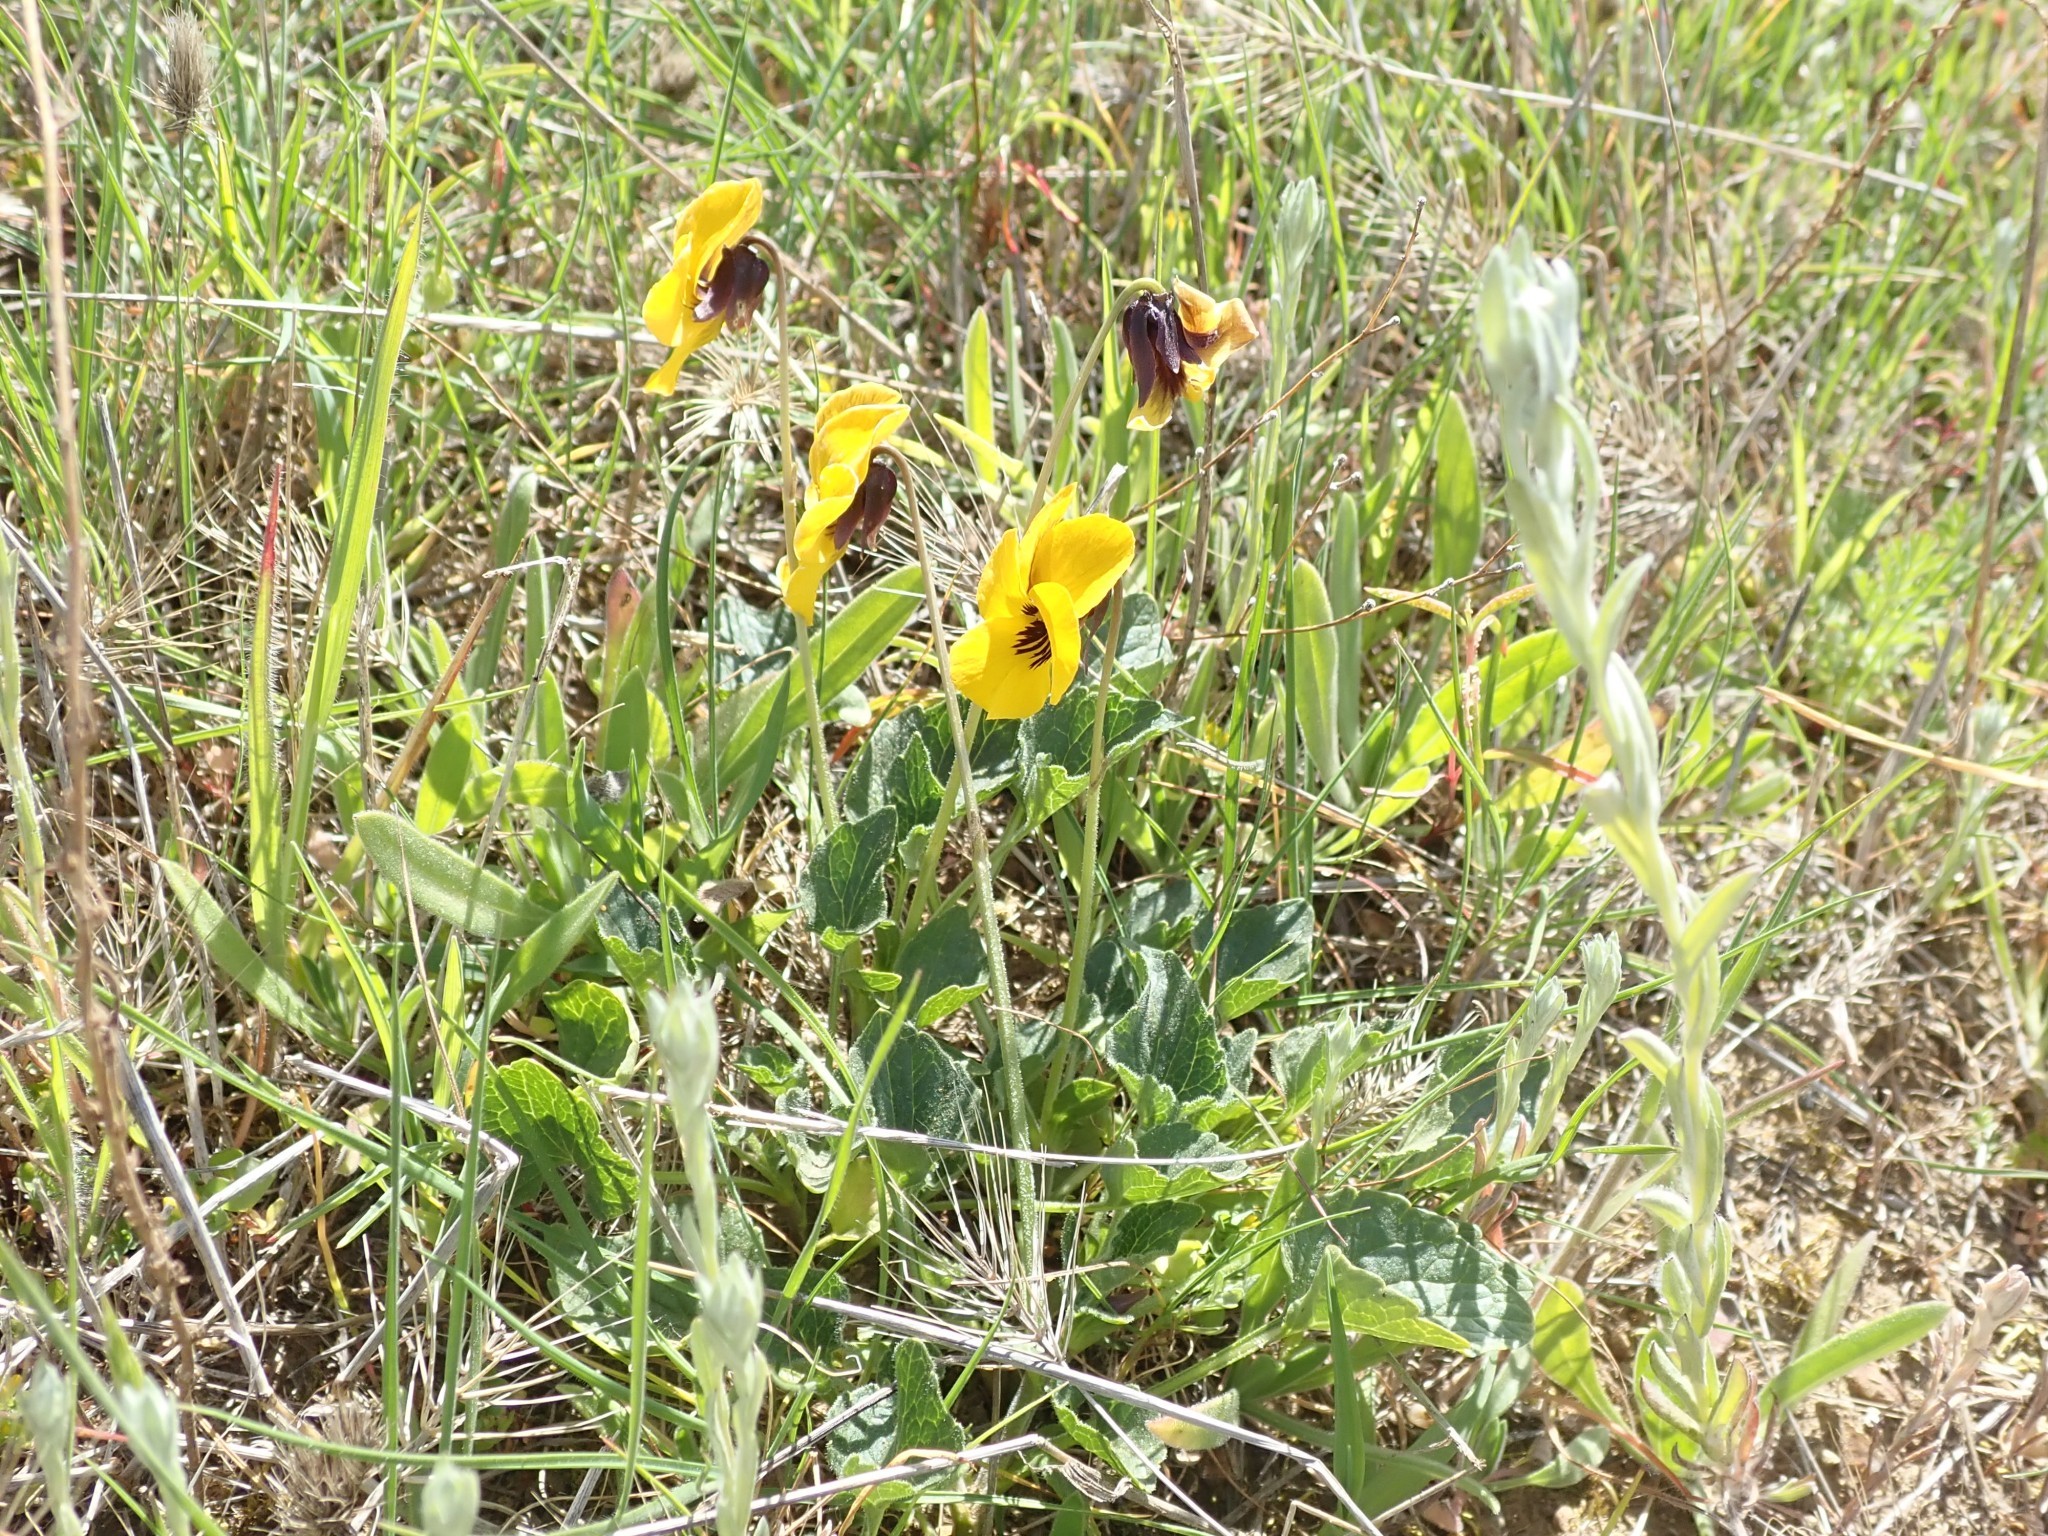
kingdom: Plantae
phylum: Tracheophyta
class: Magnoliopsida
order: Malpighiales
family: Violaceae
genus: Viola
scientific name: Viola pedunculata
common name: California golden violet
